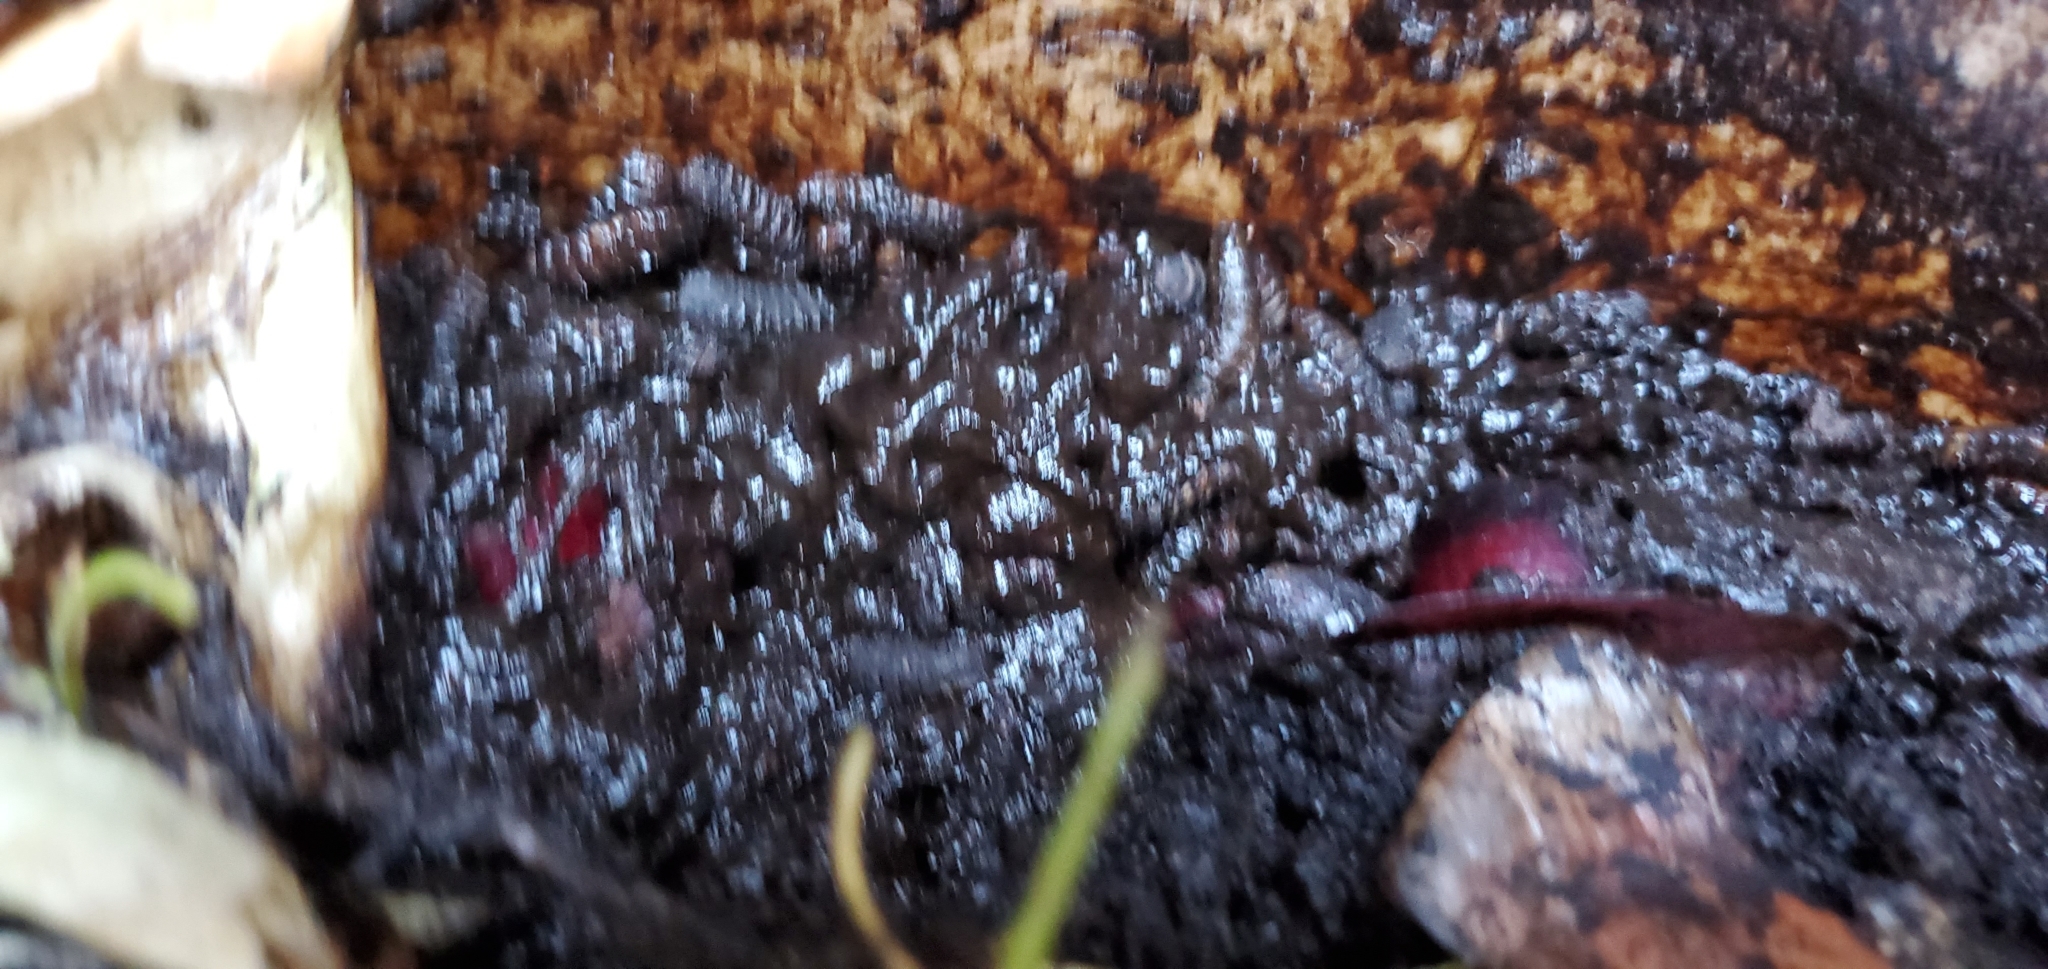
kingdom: Animalia
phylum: Arthropoda
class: Insecta
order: Diptera
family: Stratiomyidae
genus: Hermetia
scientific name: Hermetia illucens
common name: Black soldier fly
